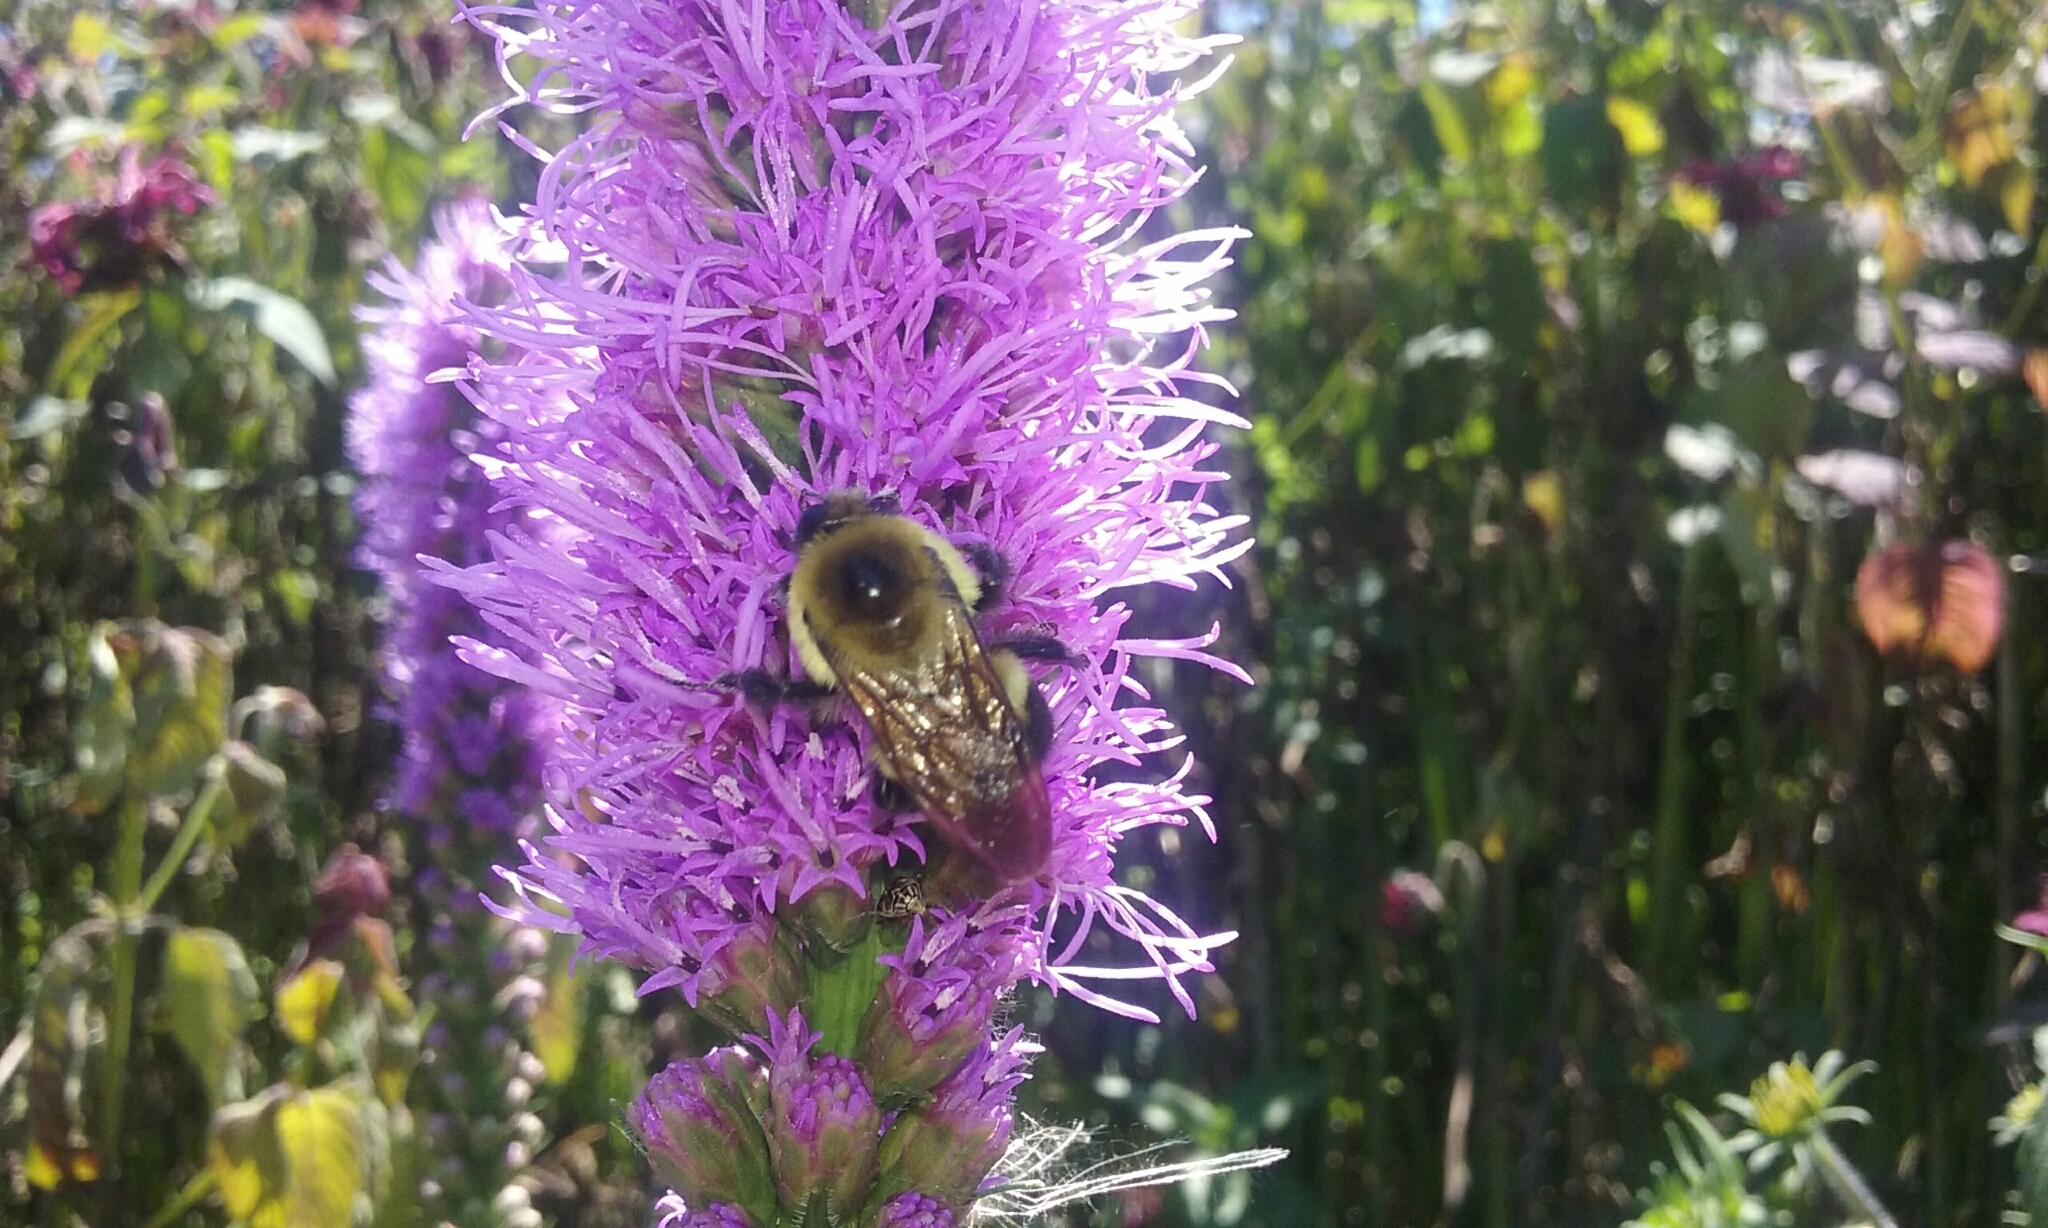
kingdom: Animalia
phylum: Arthropoda
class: Insecta
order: Hymenoptera
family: Apidae
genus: Bombus
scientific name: Bombus griseocollis
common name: Brown-belted bumble bee
